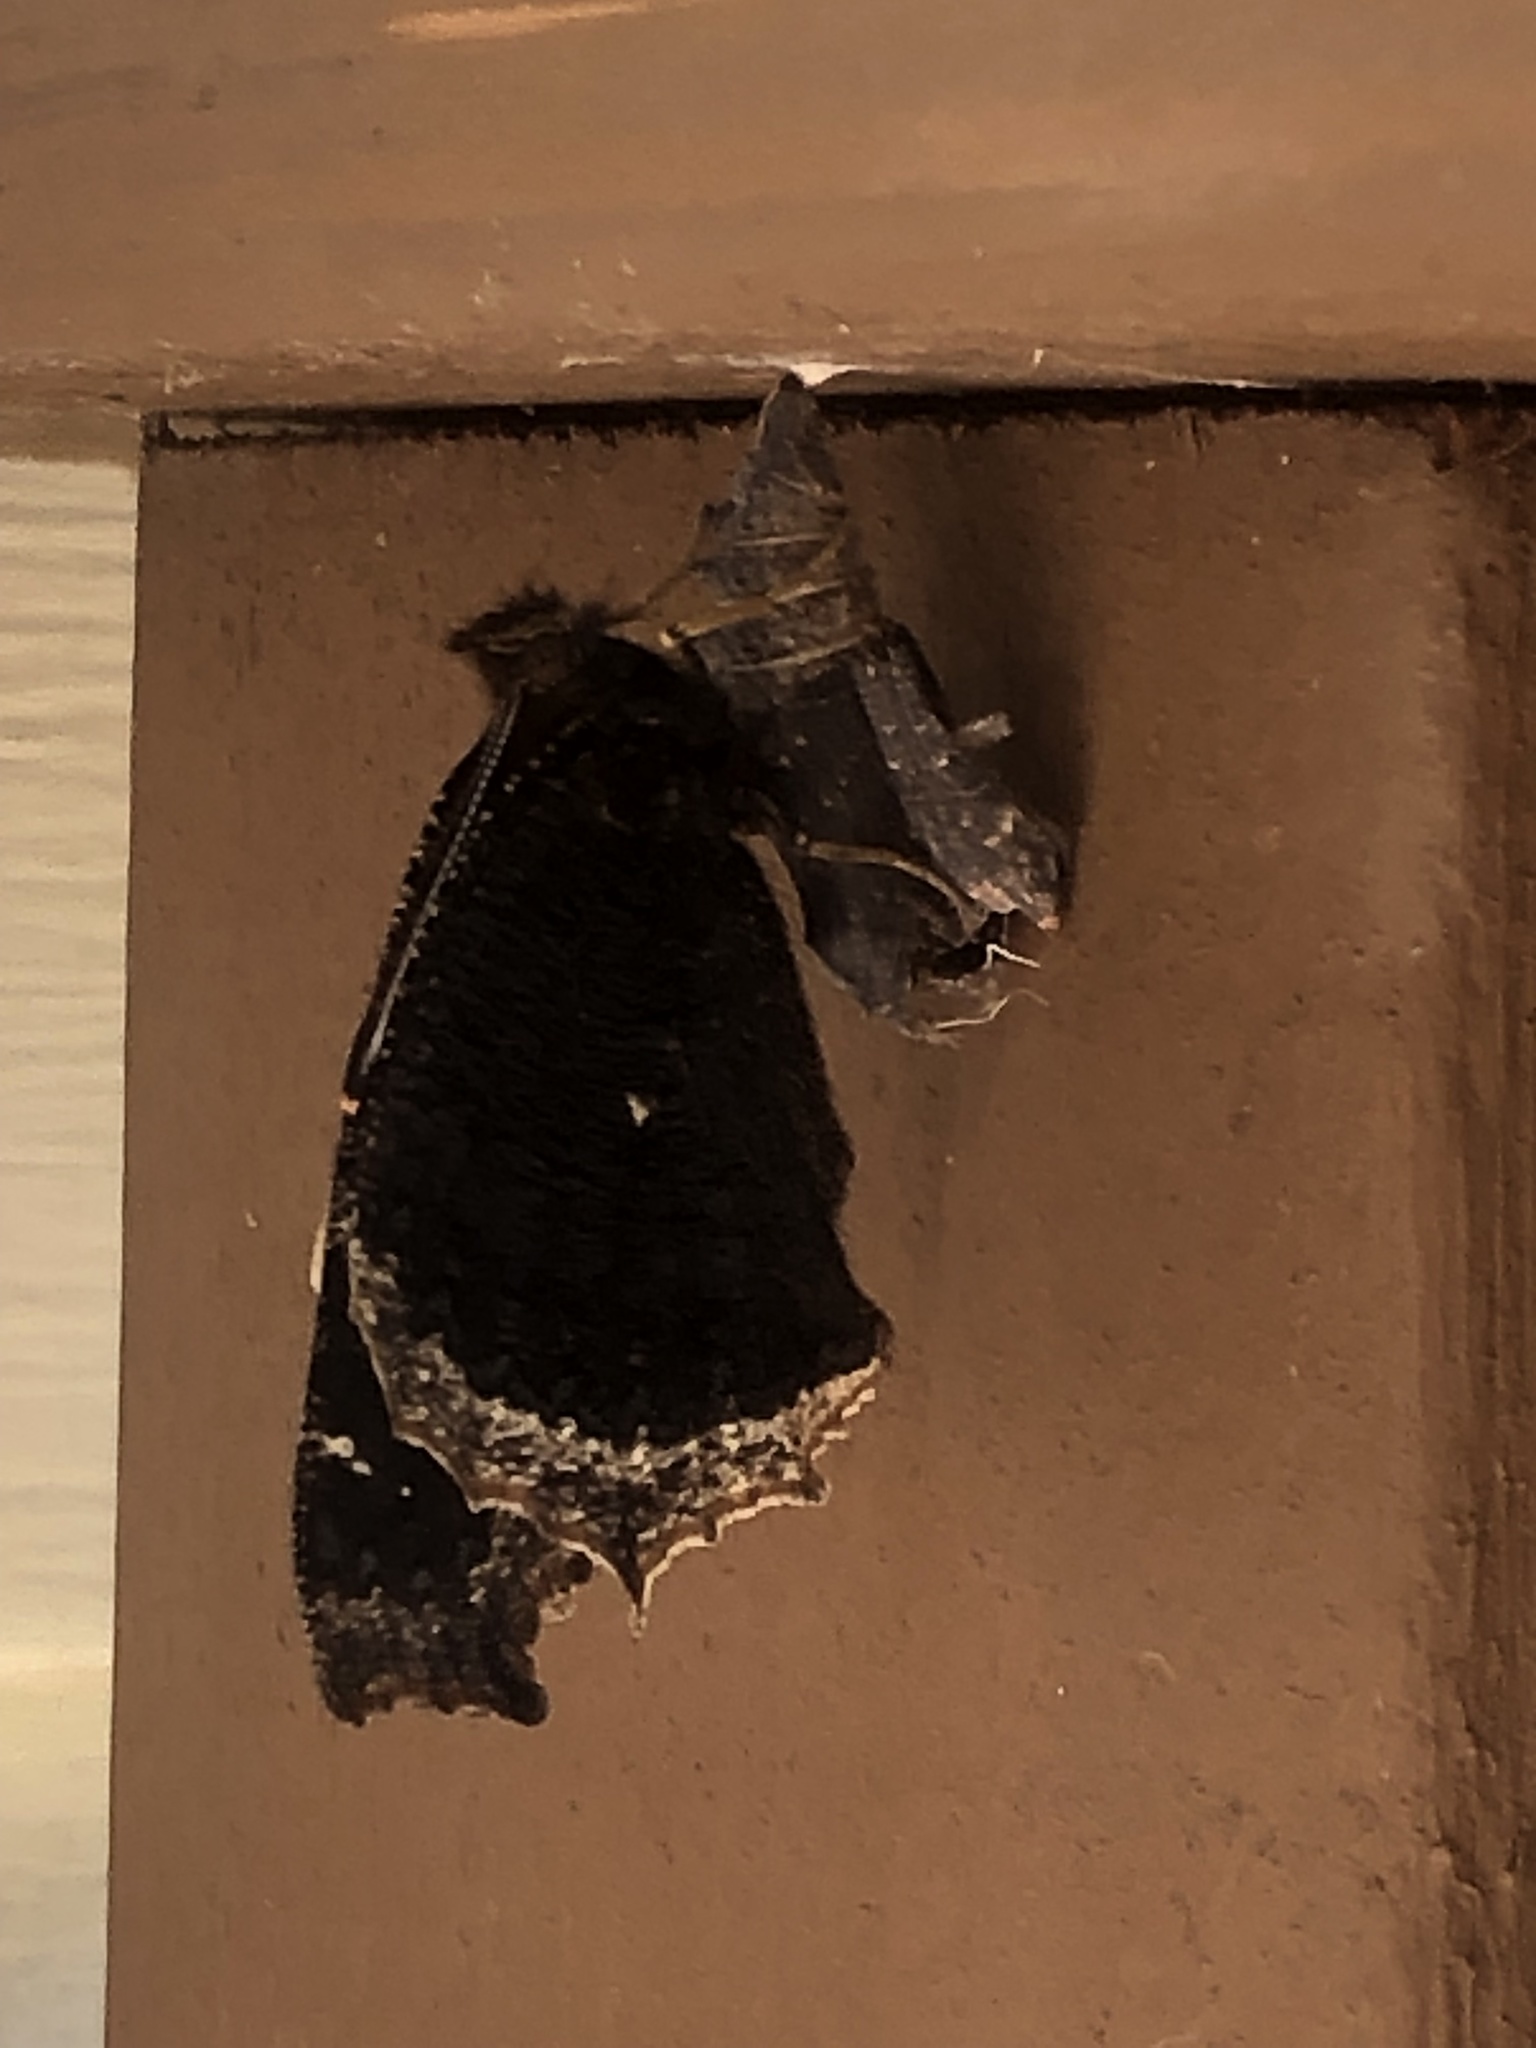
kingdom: Animalia
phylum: Arthropoda
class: Insecta
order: Lepidoptera
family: Nymphalidae
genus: Nymphalis
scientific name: Nymphalis antiopa
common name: Camberwell beauty
